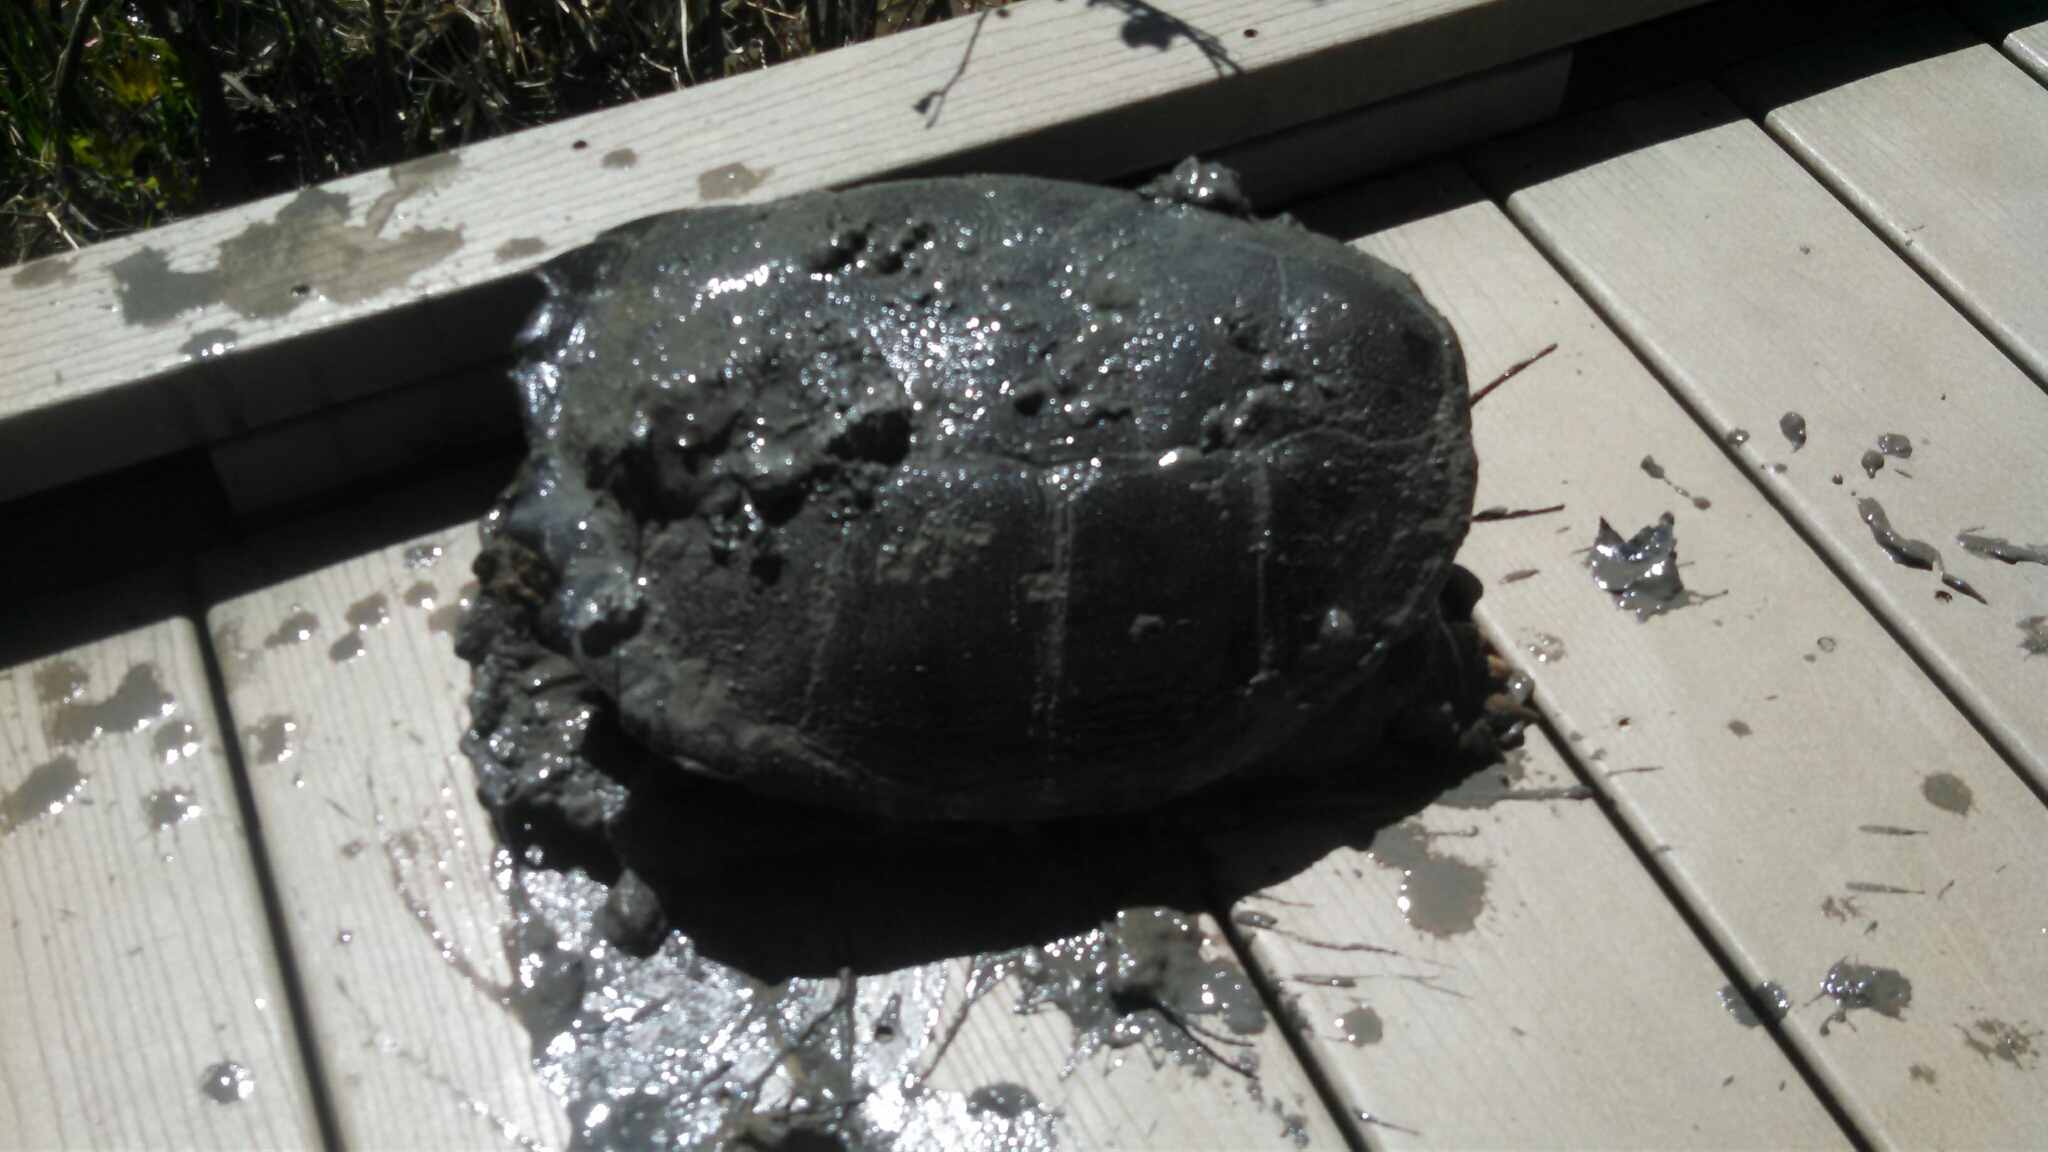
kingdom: Animalia
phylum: Chordata
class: Testudines
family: Chelydridae
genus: Chelydra
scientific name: Chelydra serpentina
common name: Common snapping turtle
